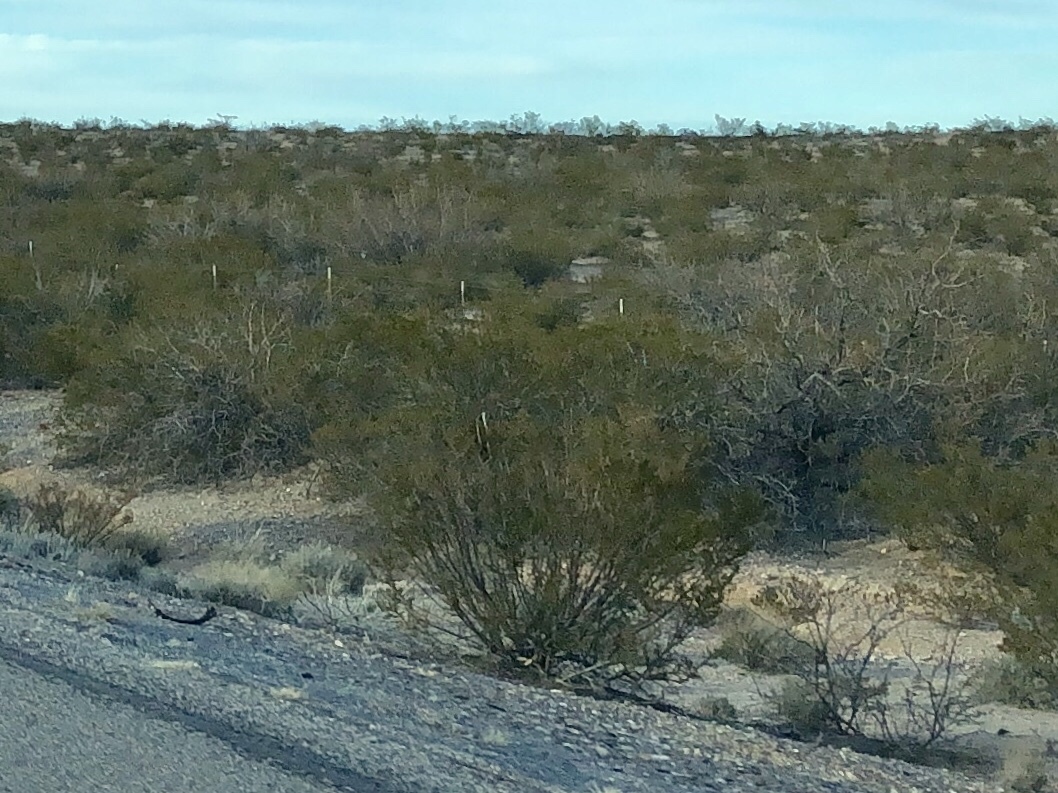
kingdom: Plantae
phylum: Tracheophyta
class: Magnoliopsida
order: Zygophyllales
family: Zygophyllaceae
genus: Larrea
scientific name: Larrea tridentata
